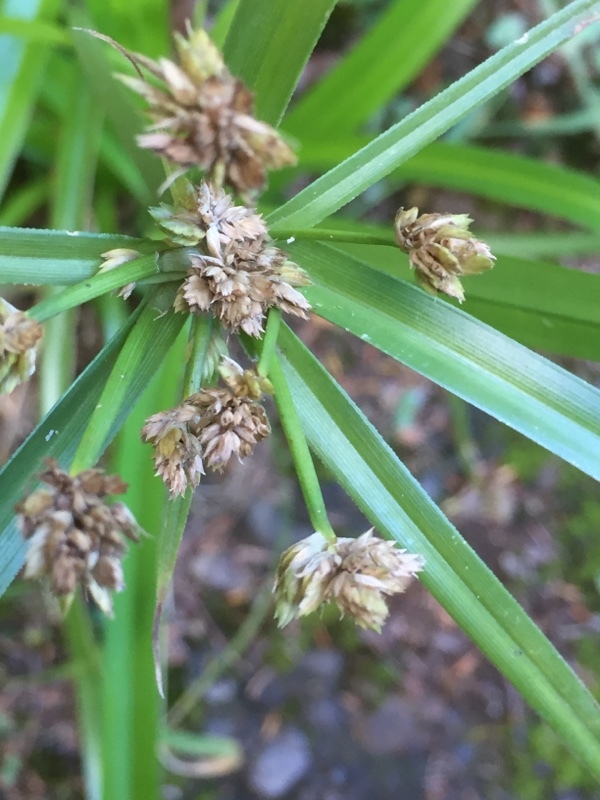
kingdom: Plantae
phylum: Tracheophyta
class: Liliopsida
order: Poales
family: Cyperaceae
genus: Cyperus
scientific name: Cyperus alternifolius
